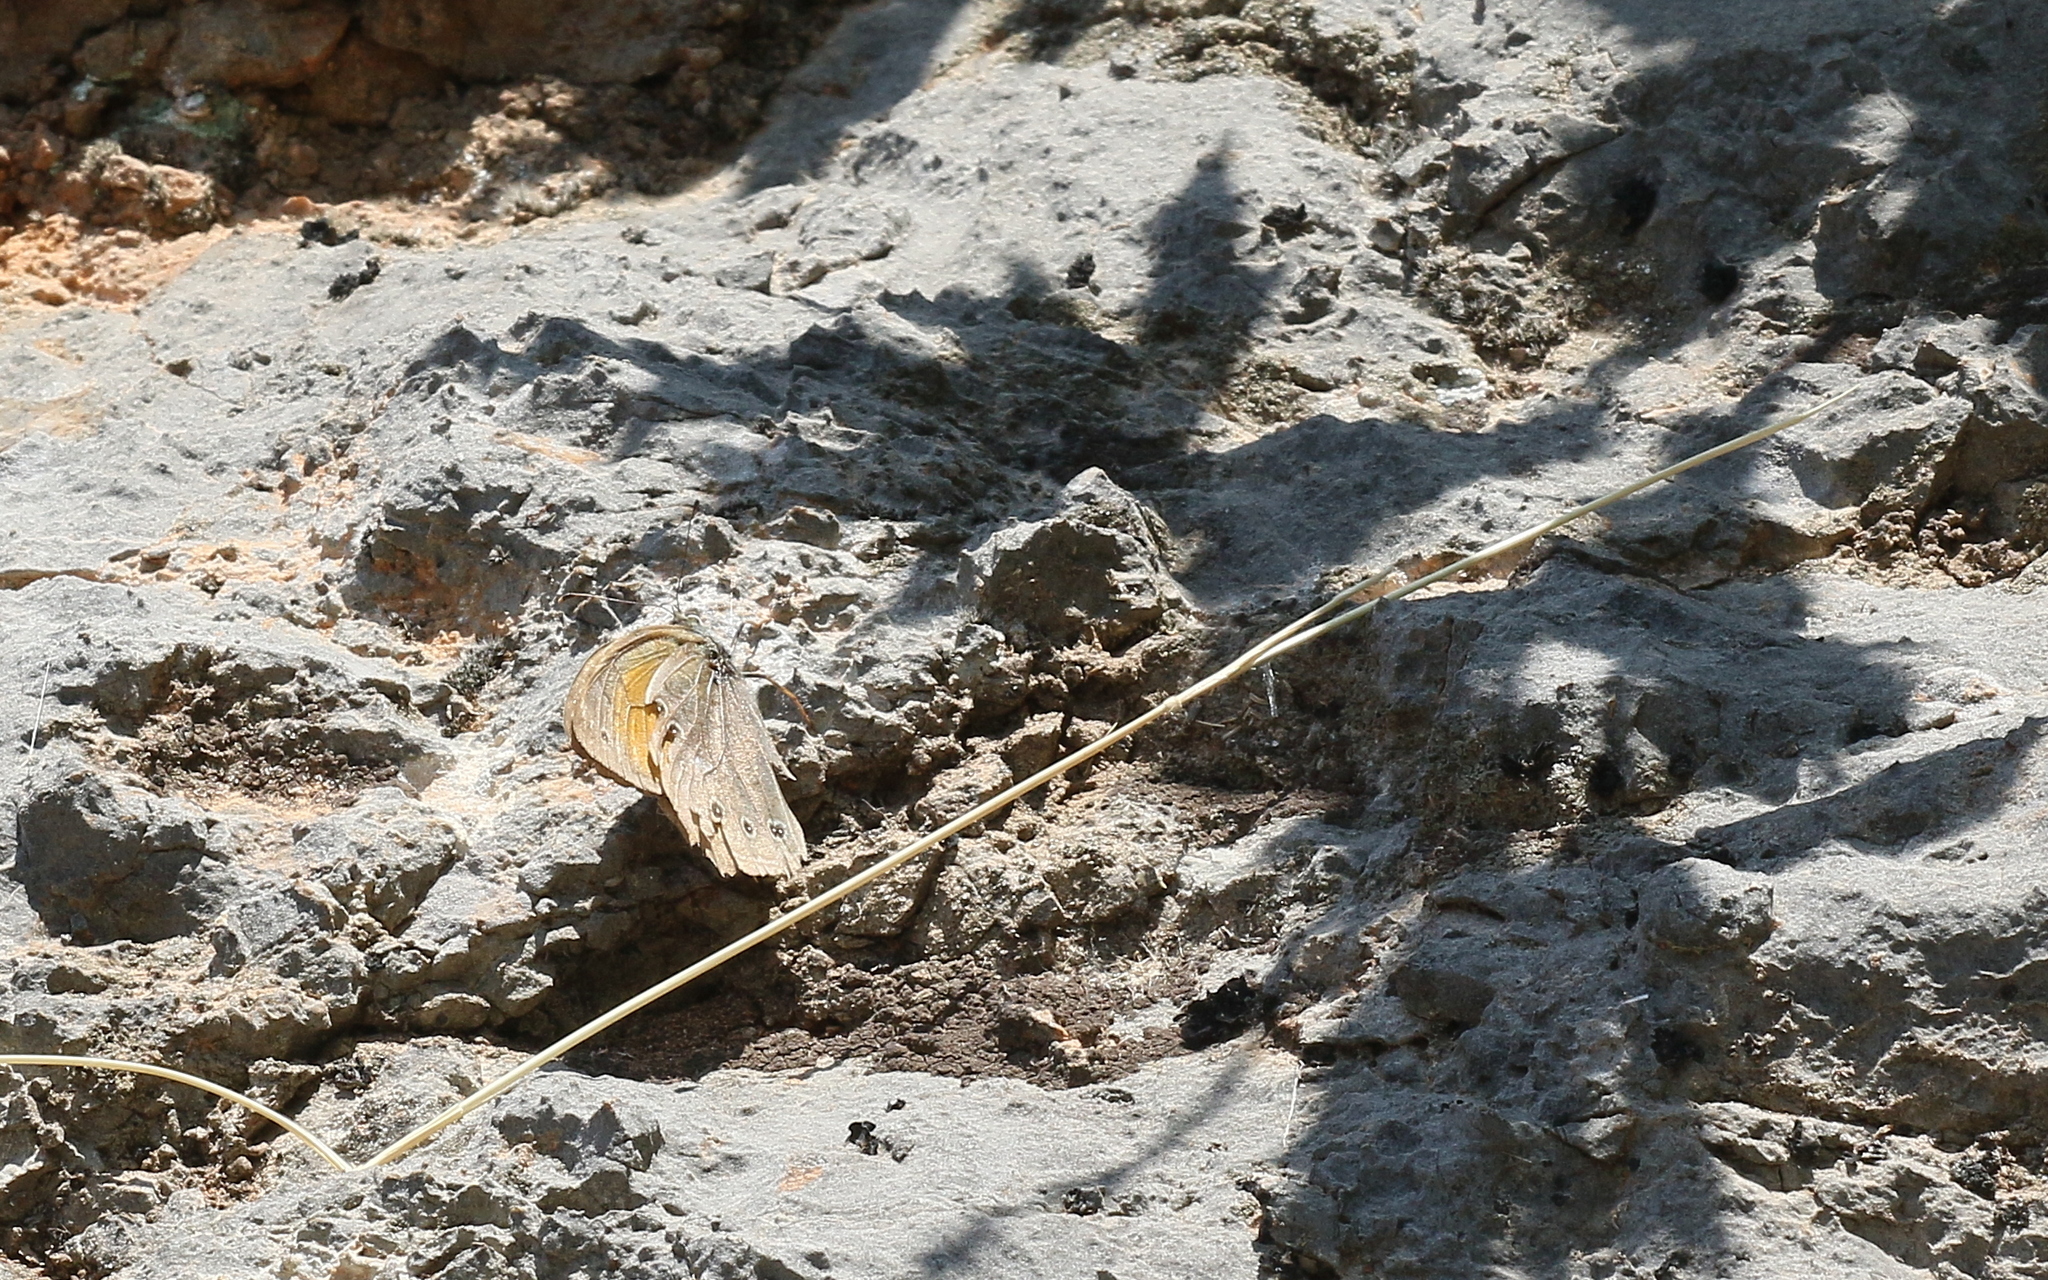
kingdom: Animalia
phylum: Arthropoda
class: Insecta
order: Lepidoptera
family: Nymphalidae
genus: Kirinia
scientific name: Kirinia roxelana
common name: Lattice brown
